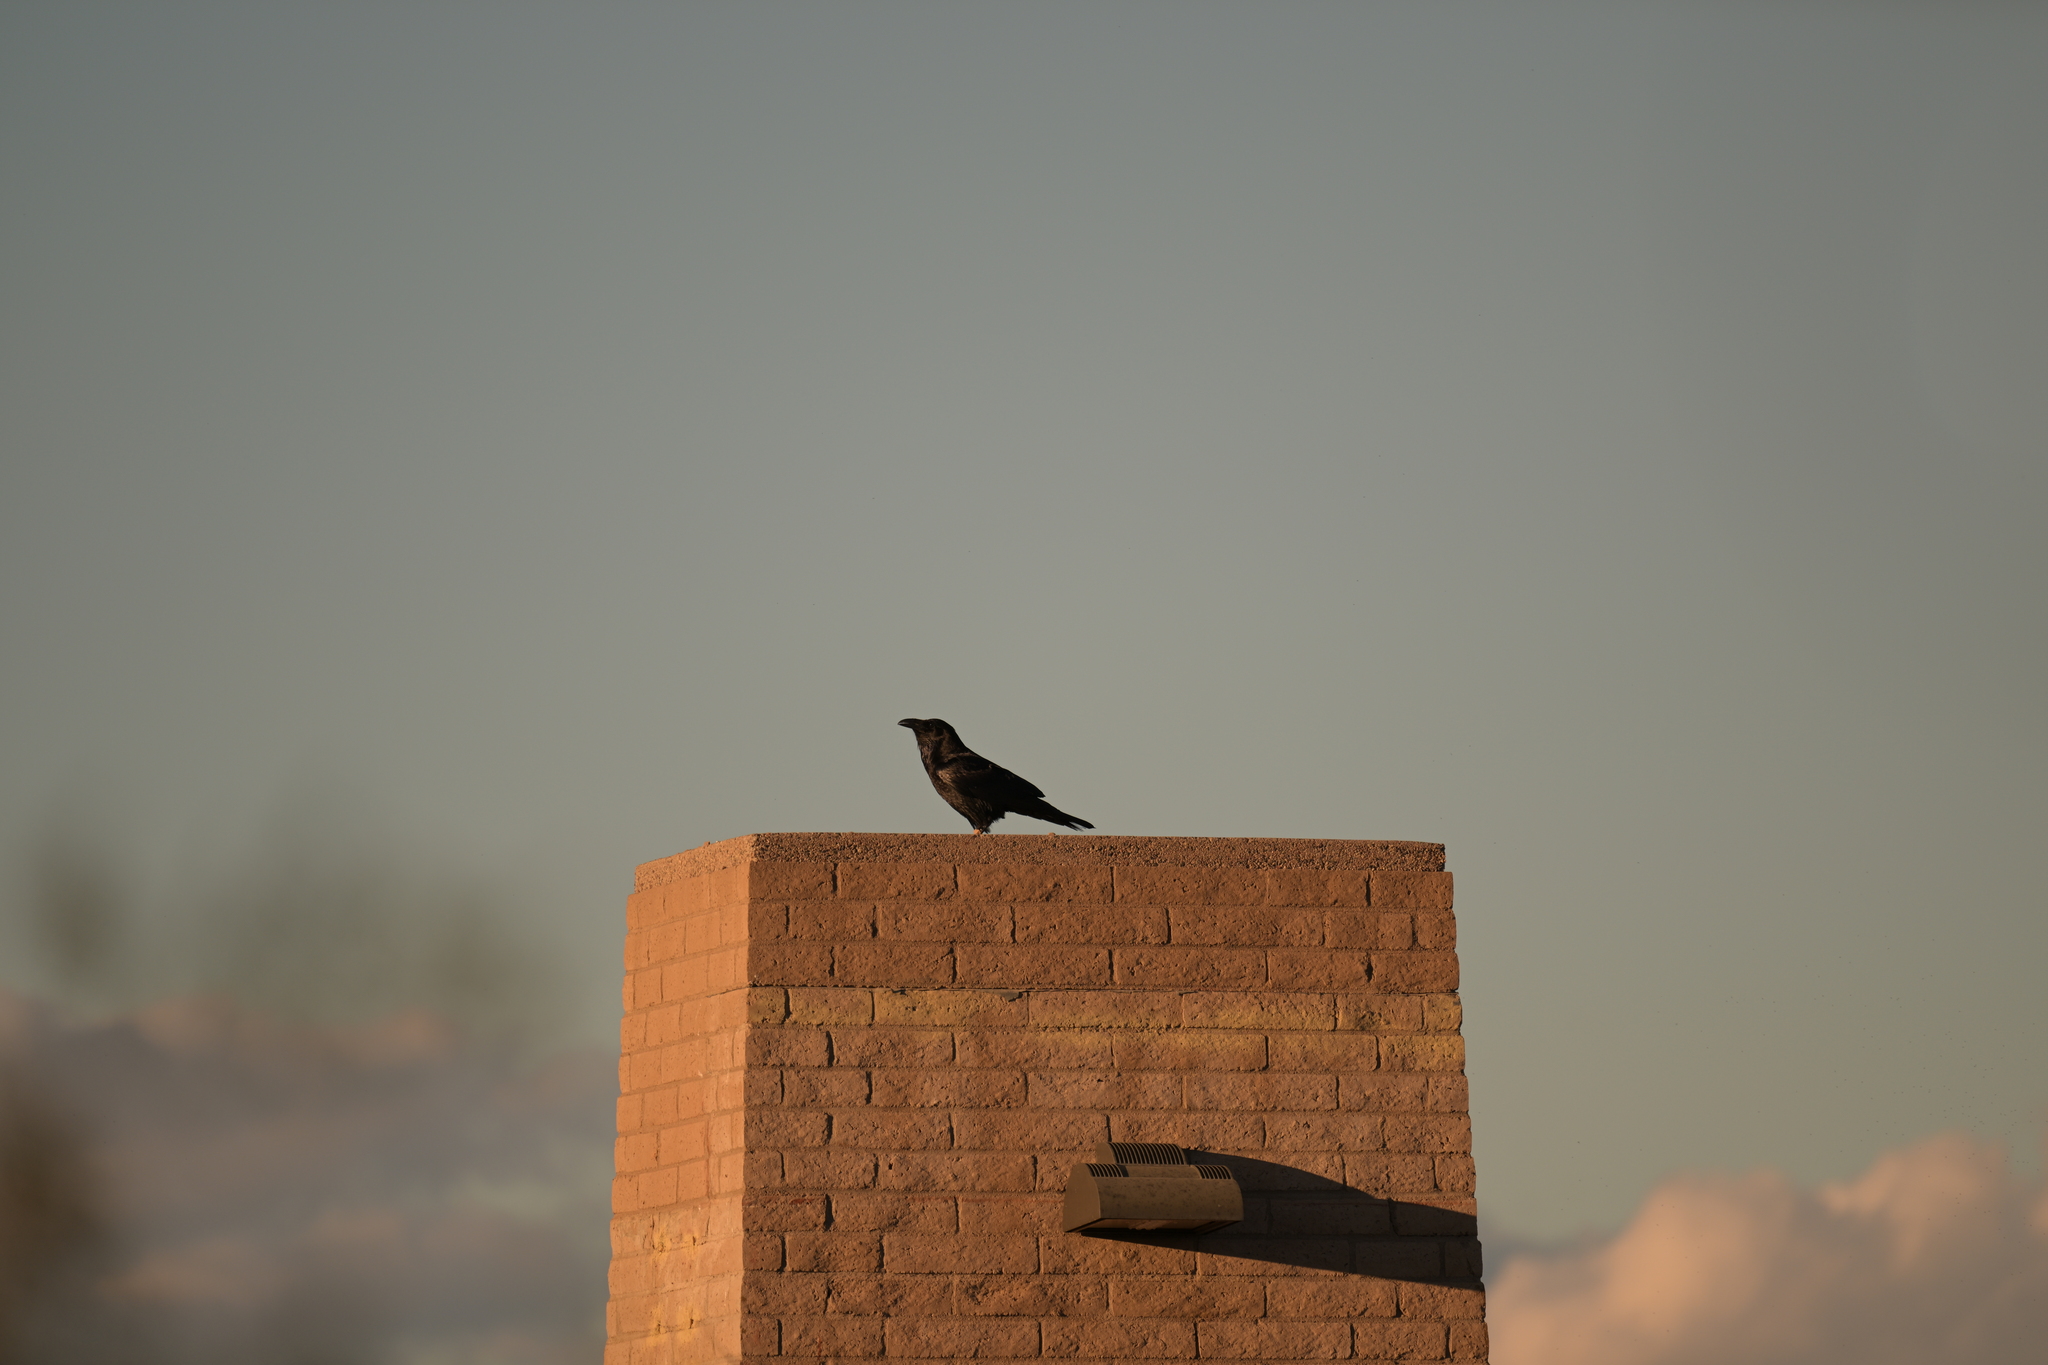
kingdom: Animalia
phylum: Chordata
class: Aves
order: Passeriformes
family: Corvidae
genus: Corvus
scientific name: Corvus corax
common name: Common raven
